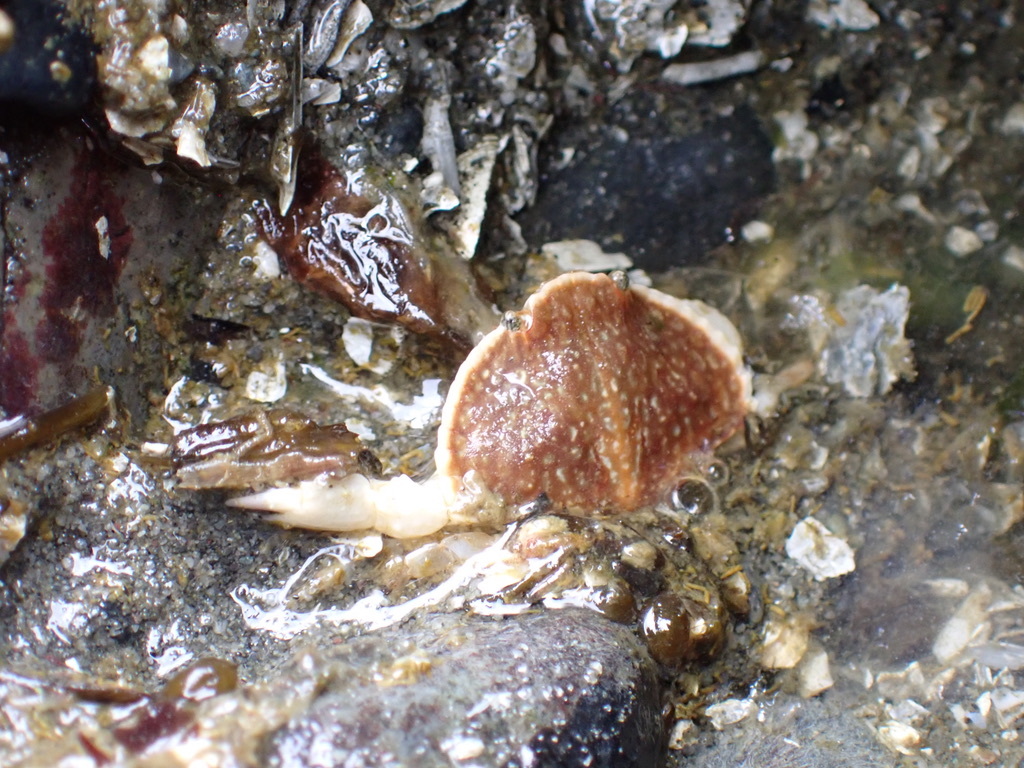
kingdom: Animalia
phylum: Arthropoda
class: Malacostraca
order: Decapoda
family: Cancridae
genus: Cancer
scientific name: Cancer productus
